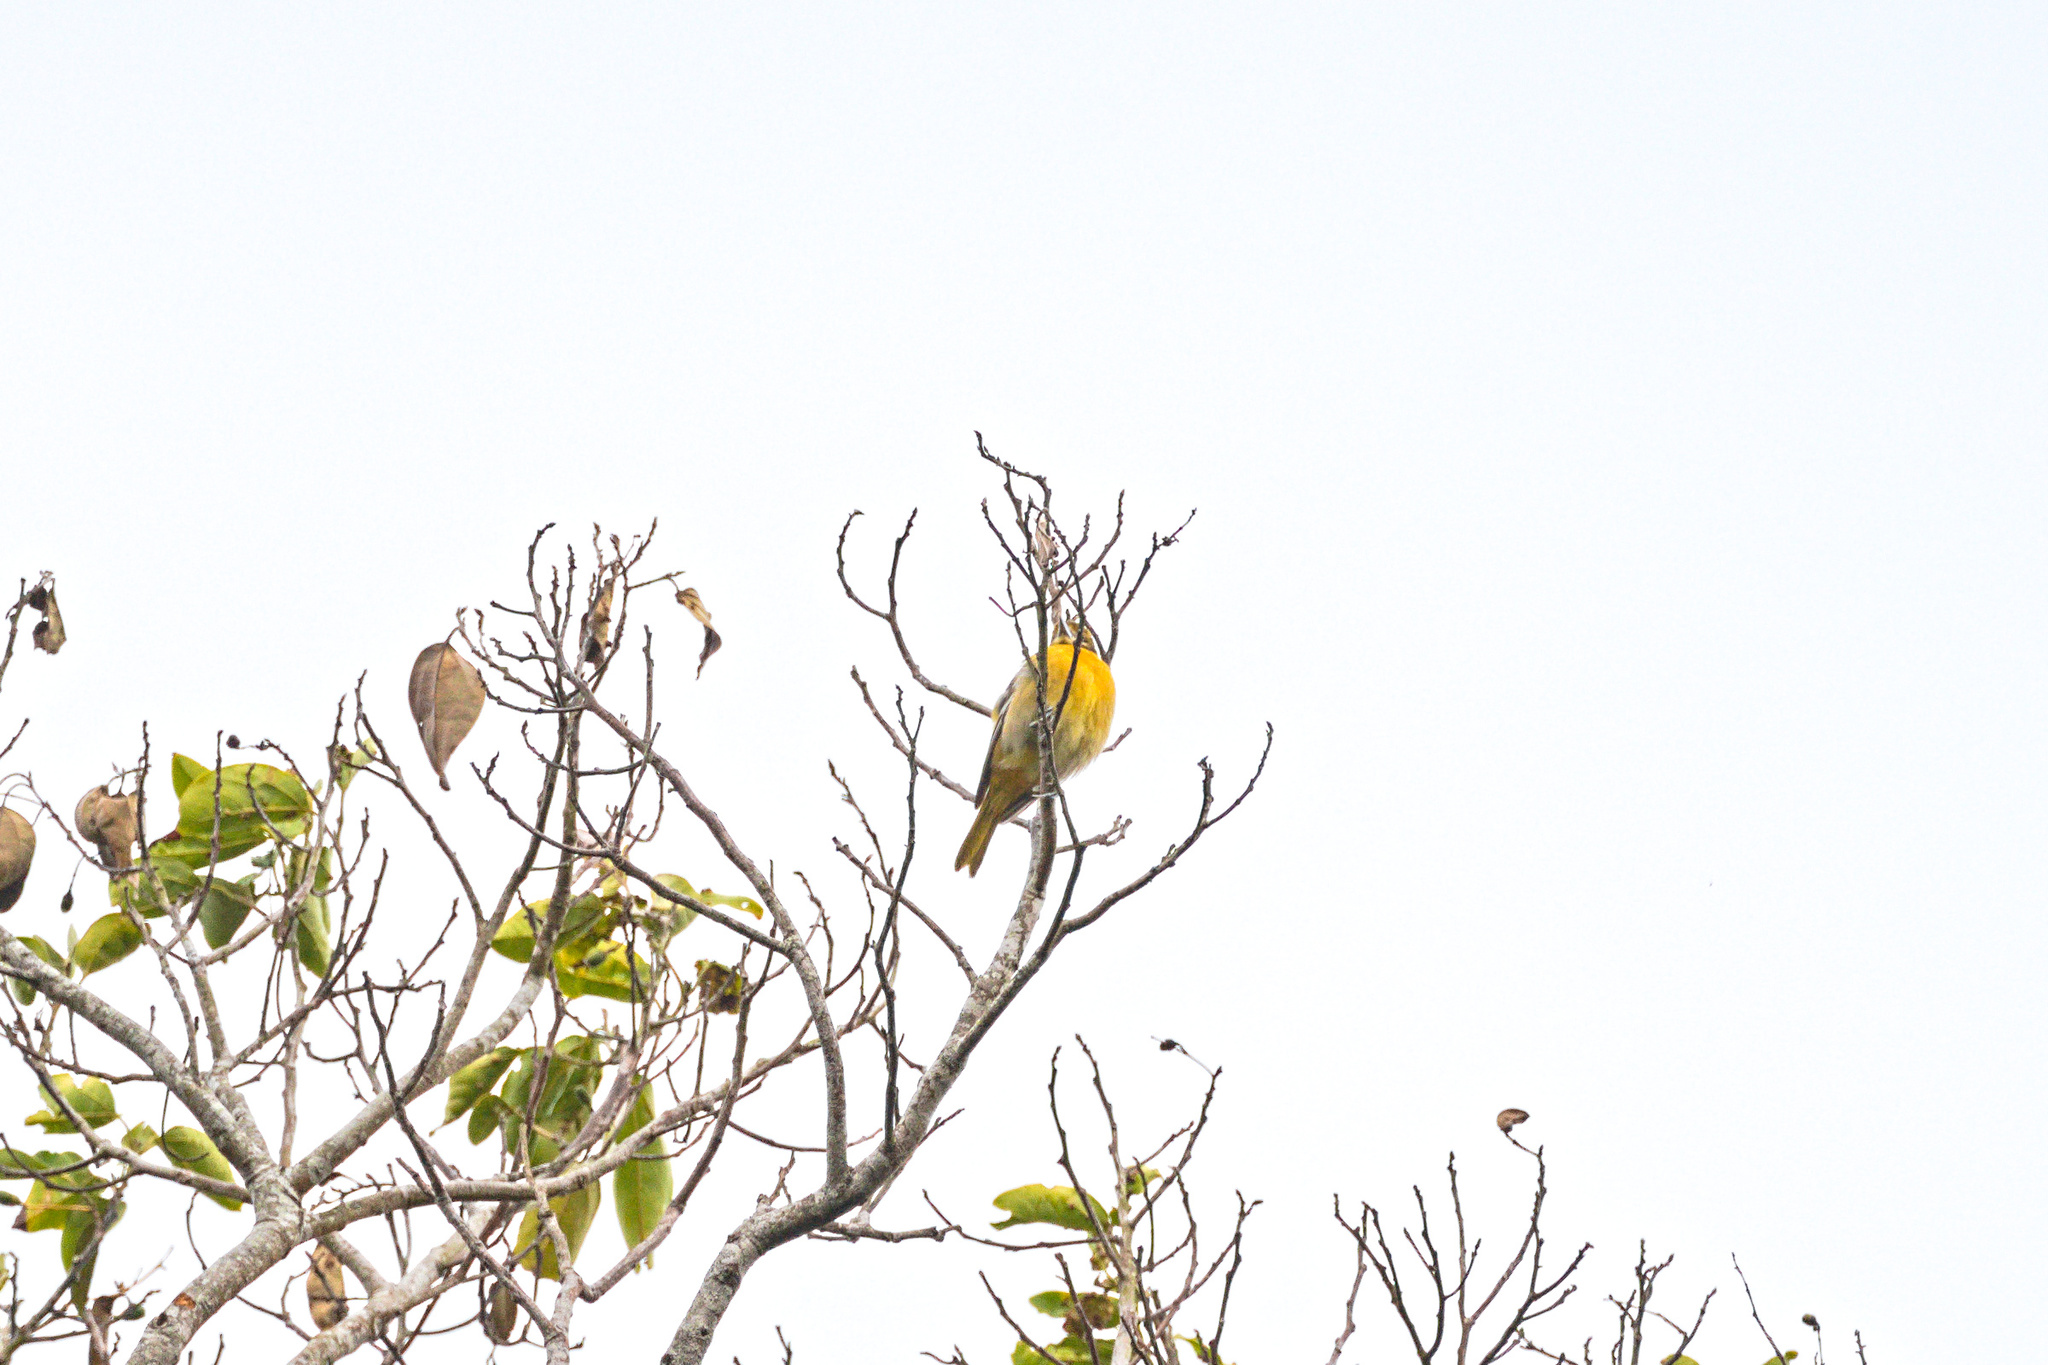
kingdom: Animalia
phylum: Chordata
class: Aves
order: Passeriformes
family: Icteridae
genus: Icterus
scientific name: Icterus galbula
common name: Baltimore oriole
